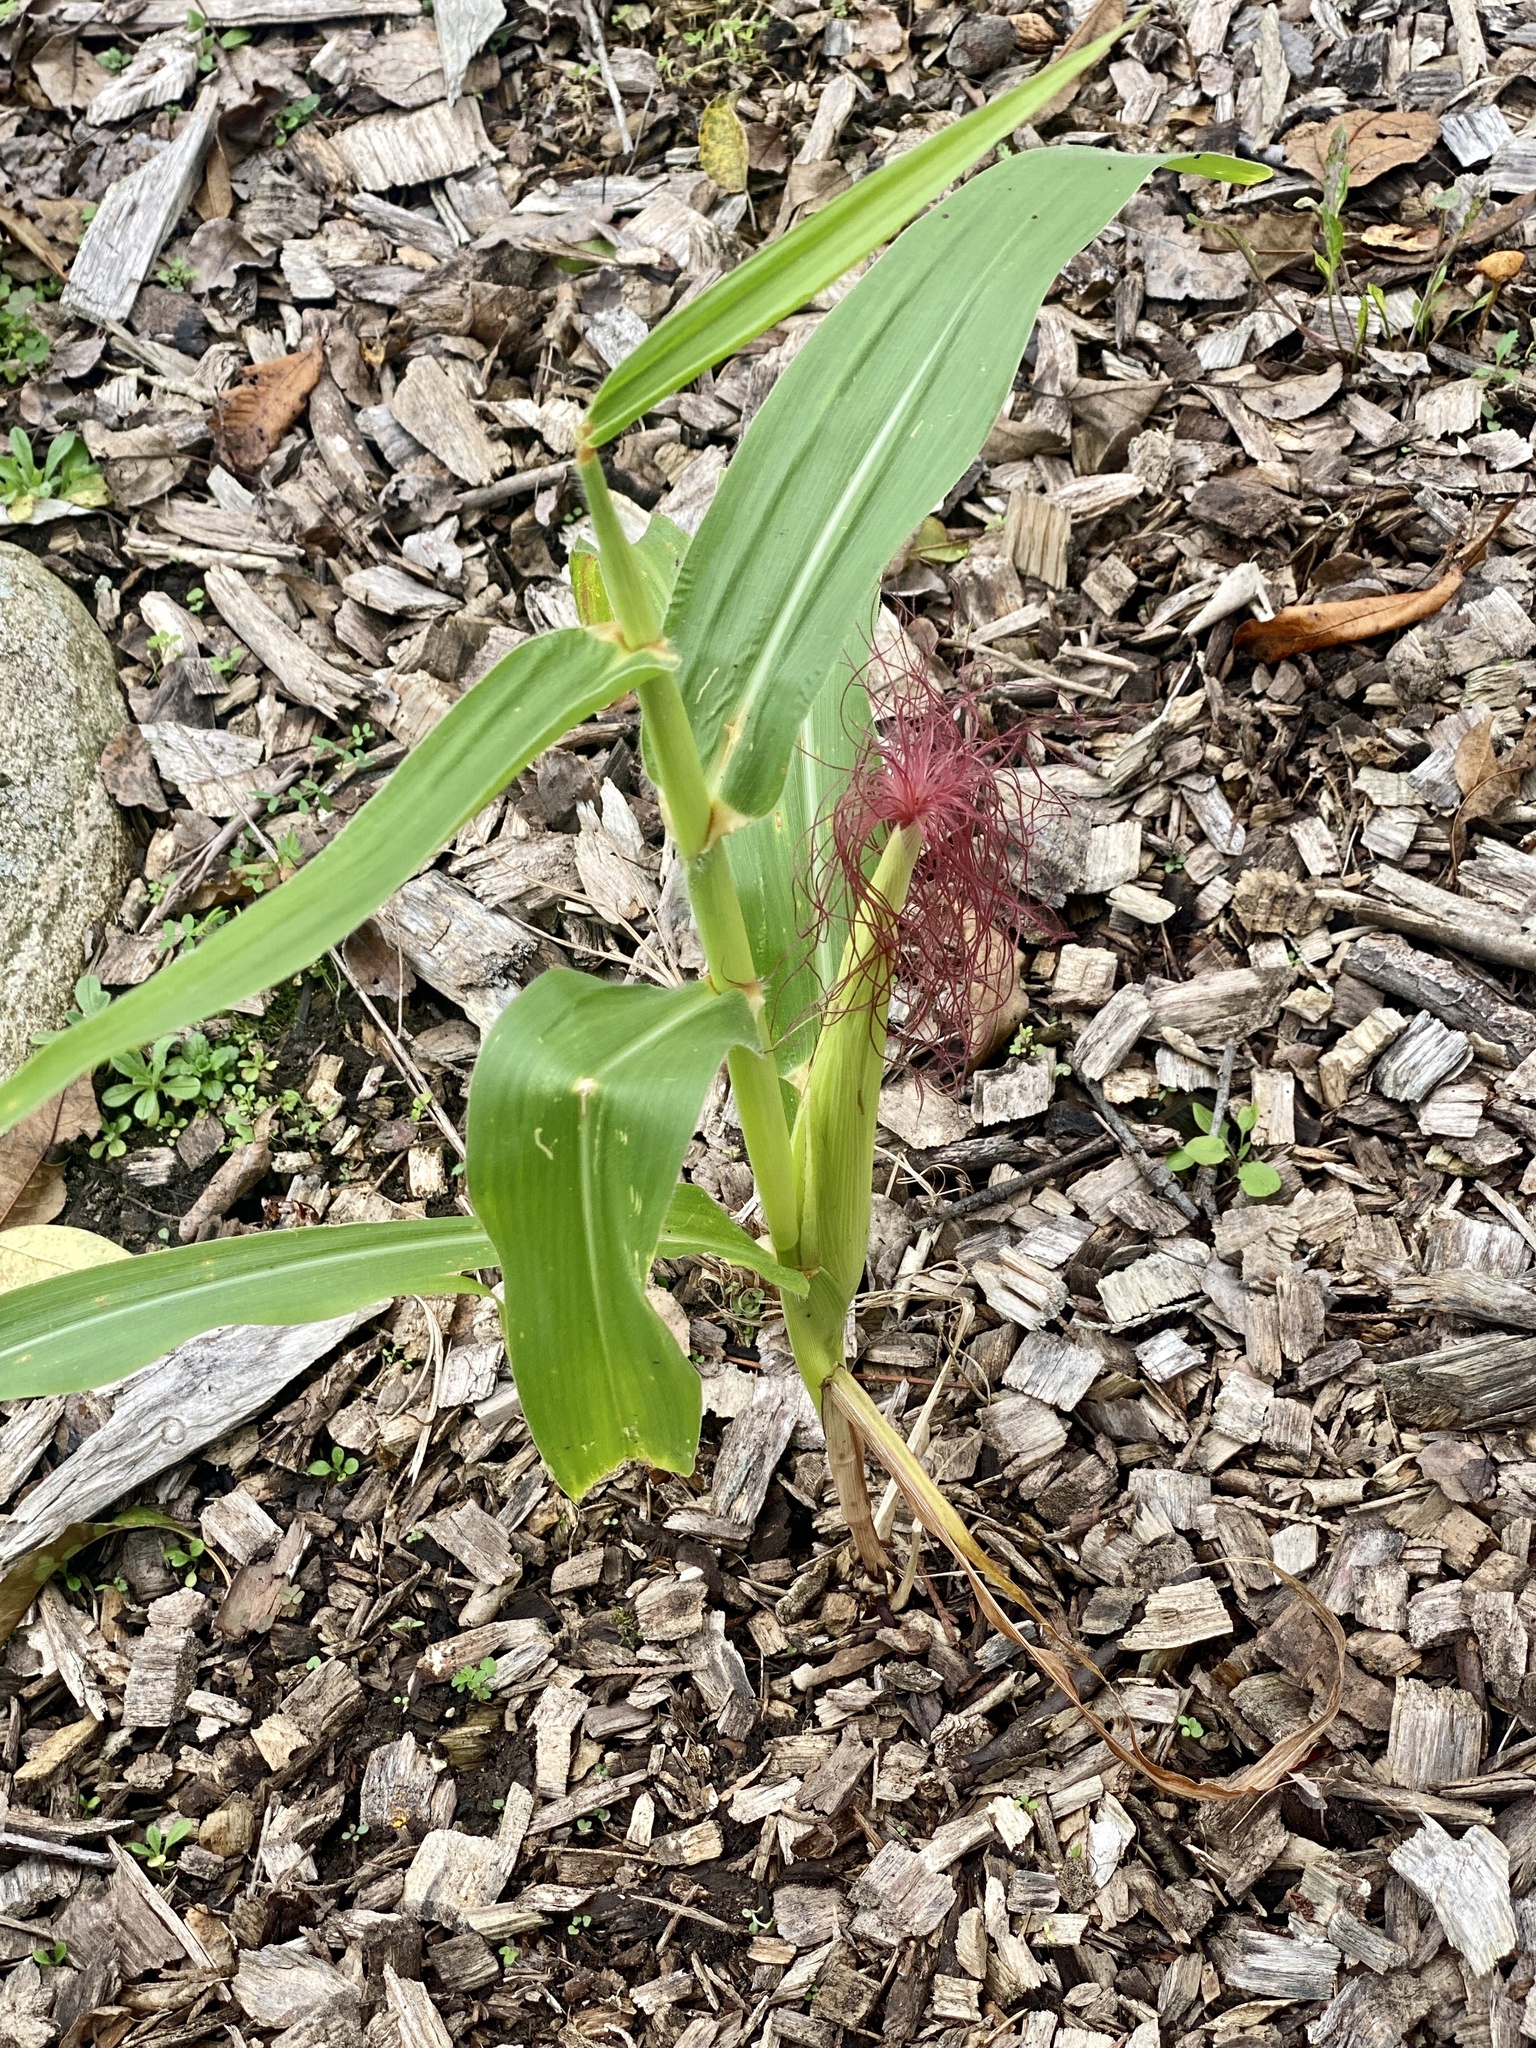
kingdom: Plantae
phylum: Tracheophyta
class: Liliopsida
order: Poales
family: Poaceae
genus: Zea
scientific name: Zea mays
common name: Maize
